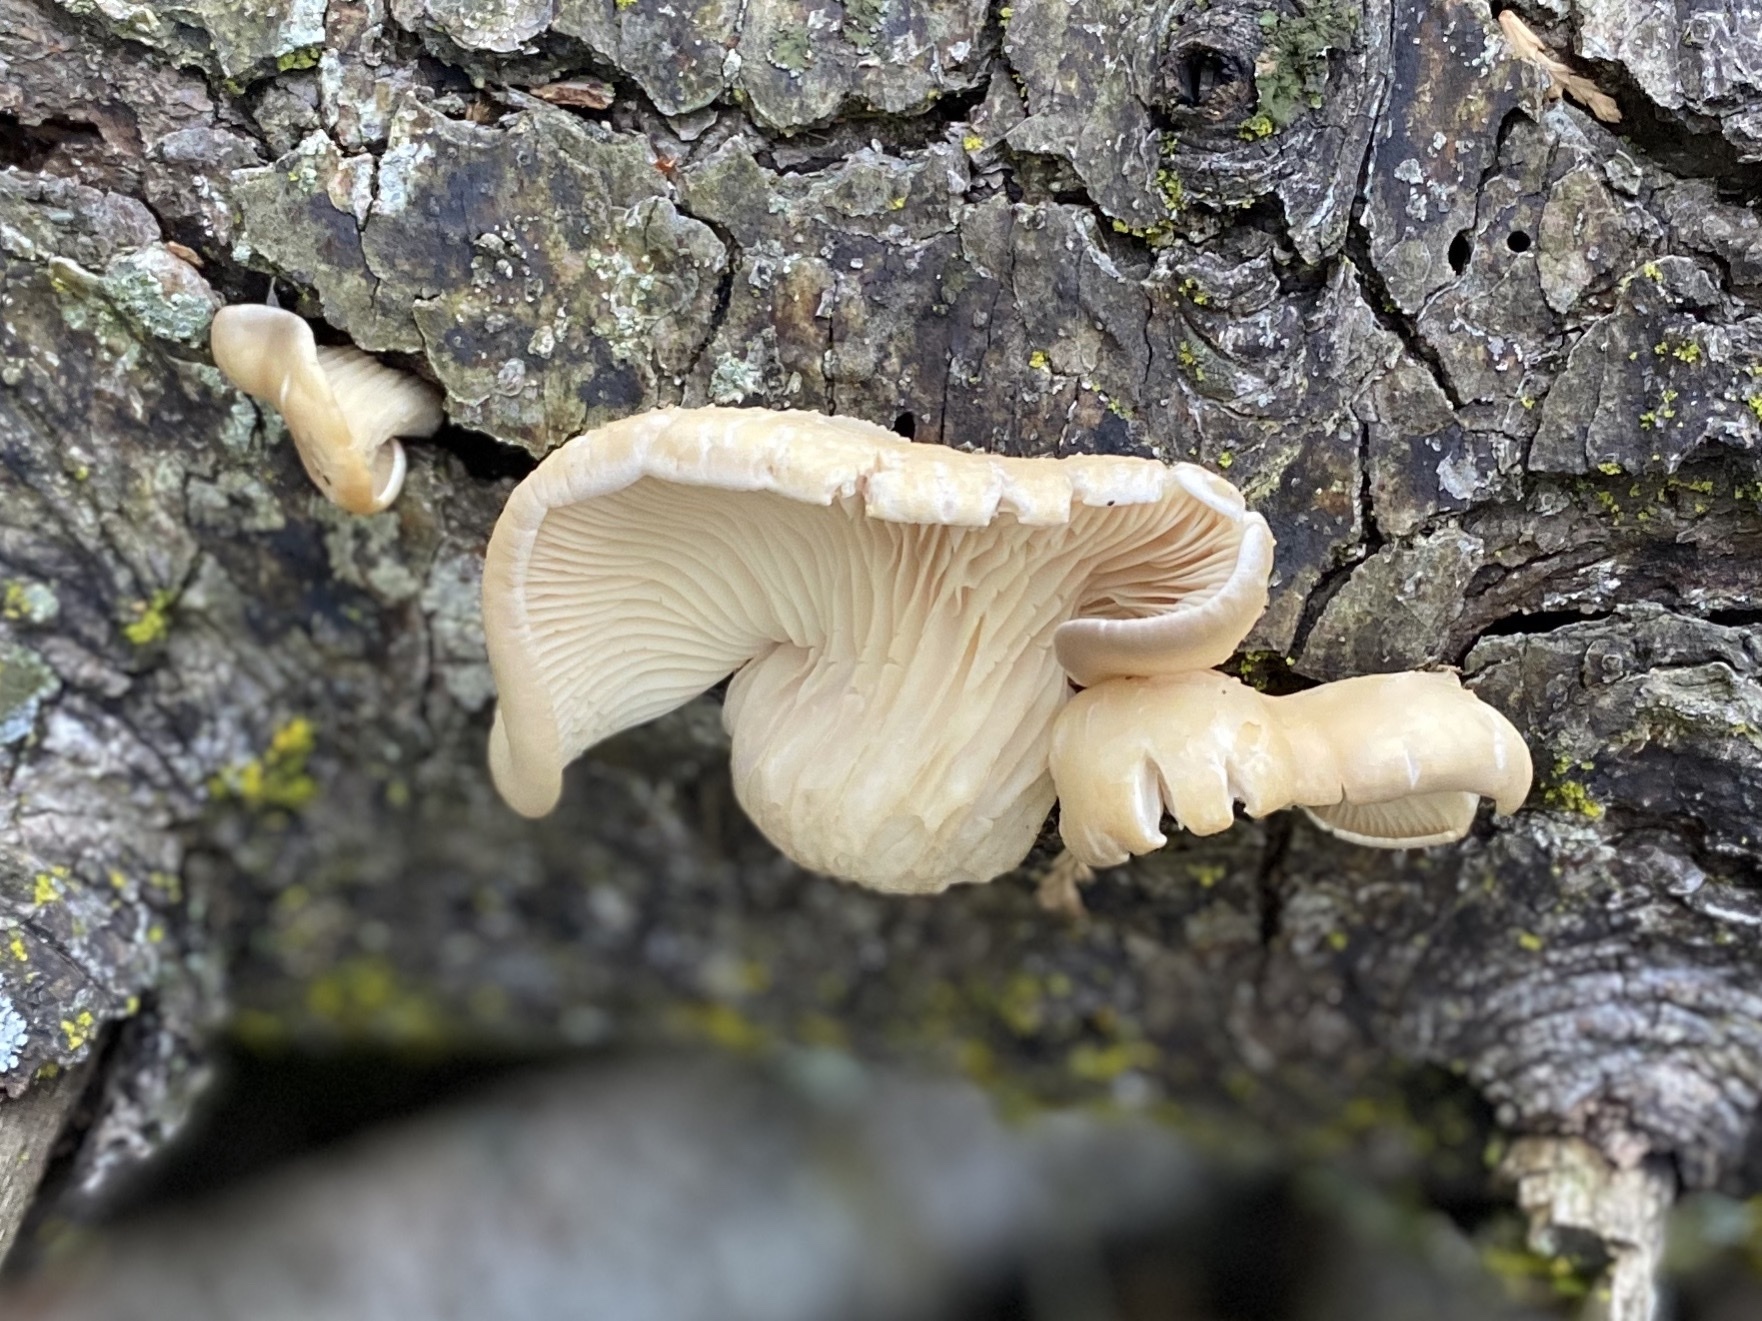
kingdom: Fungi
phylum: Basidiomycota
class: Agaricomycetes
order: Agaricales
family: Pleurotaceae
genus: Pleurotus
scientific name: Pleurotus pulmonarius
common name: Pale oyster
